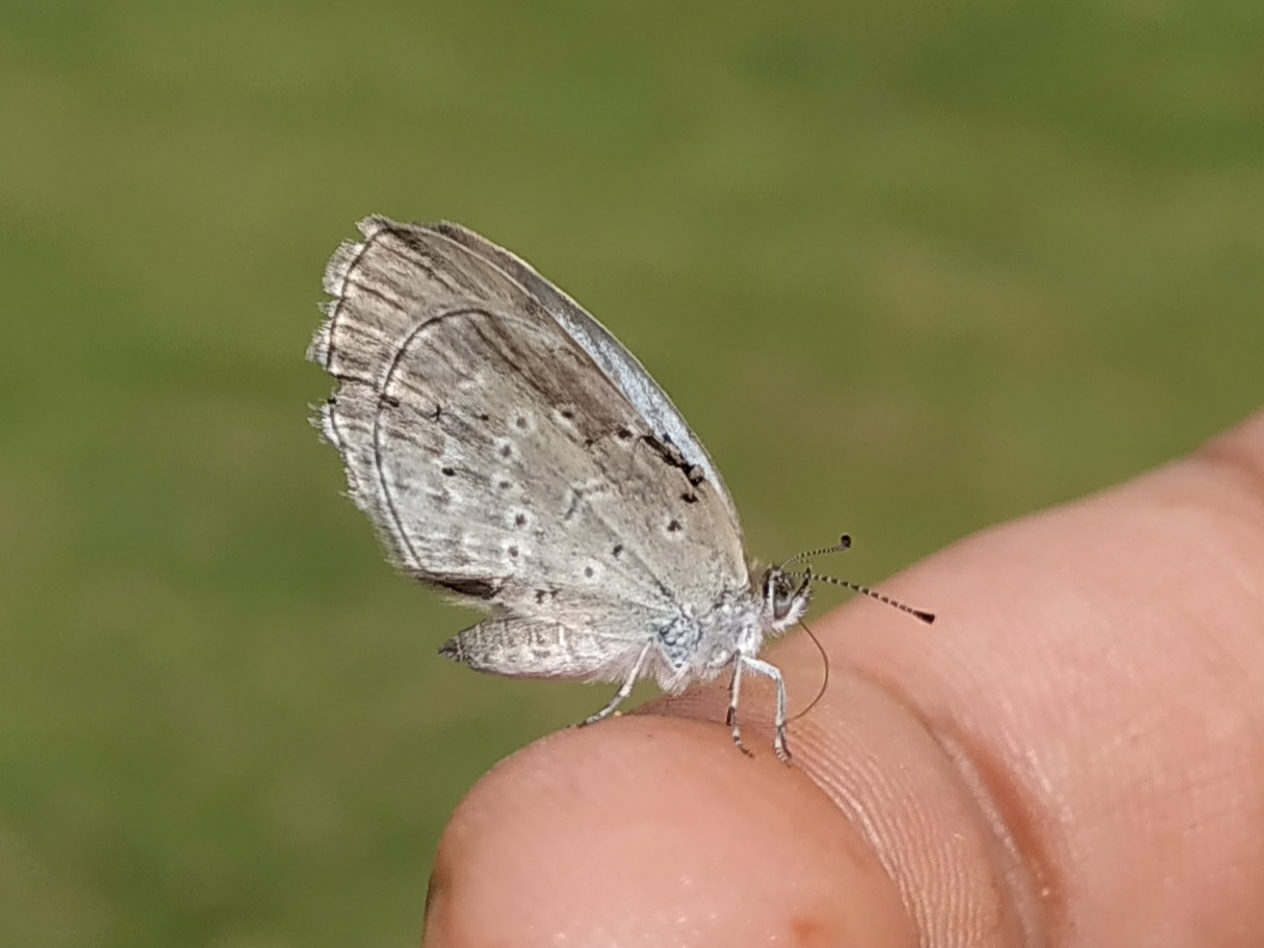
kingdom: Animalia
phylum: Arthropoda
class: Insecta
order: Lepidoptera
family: Lycaenidae
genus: Pseudozizeeria
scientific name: Pseudozizeeria maha
